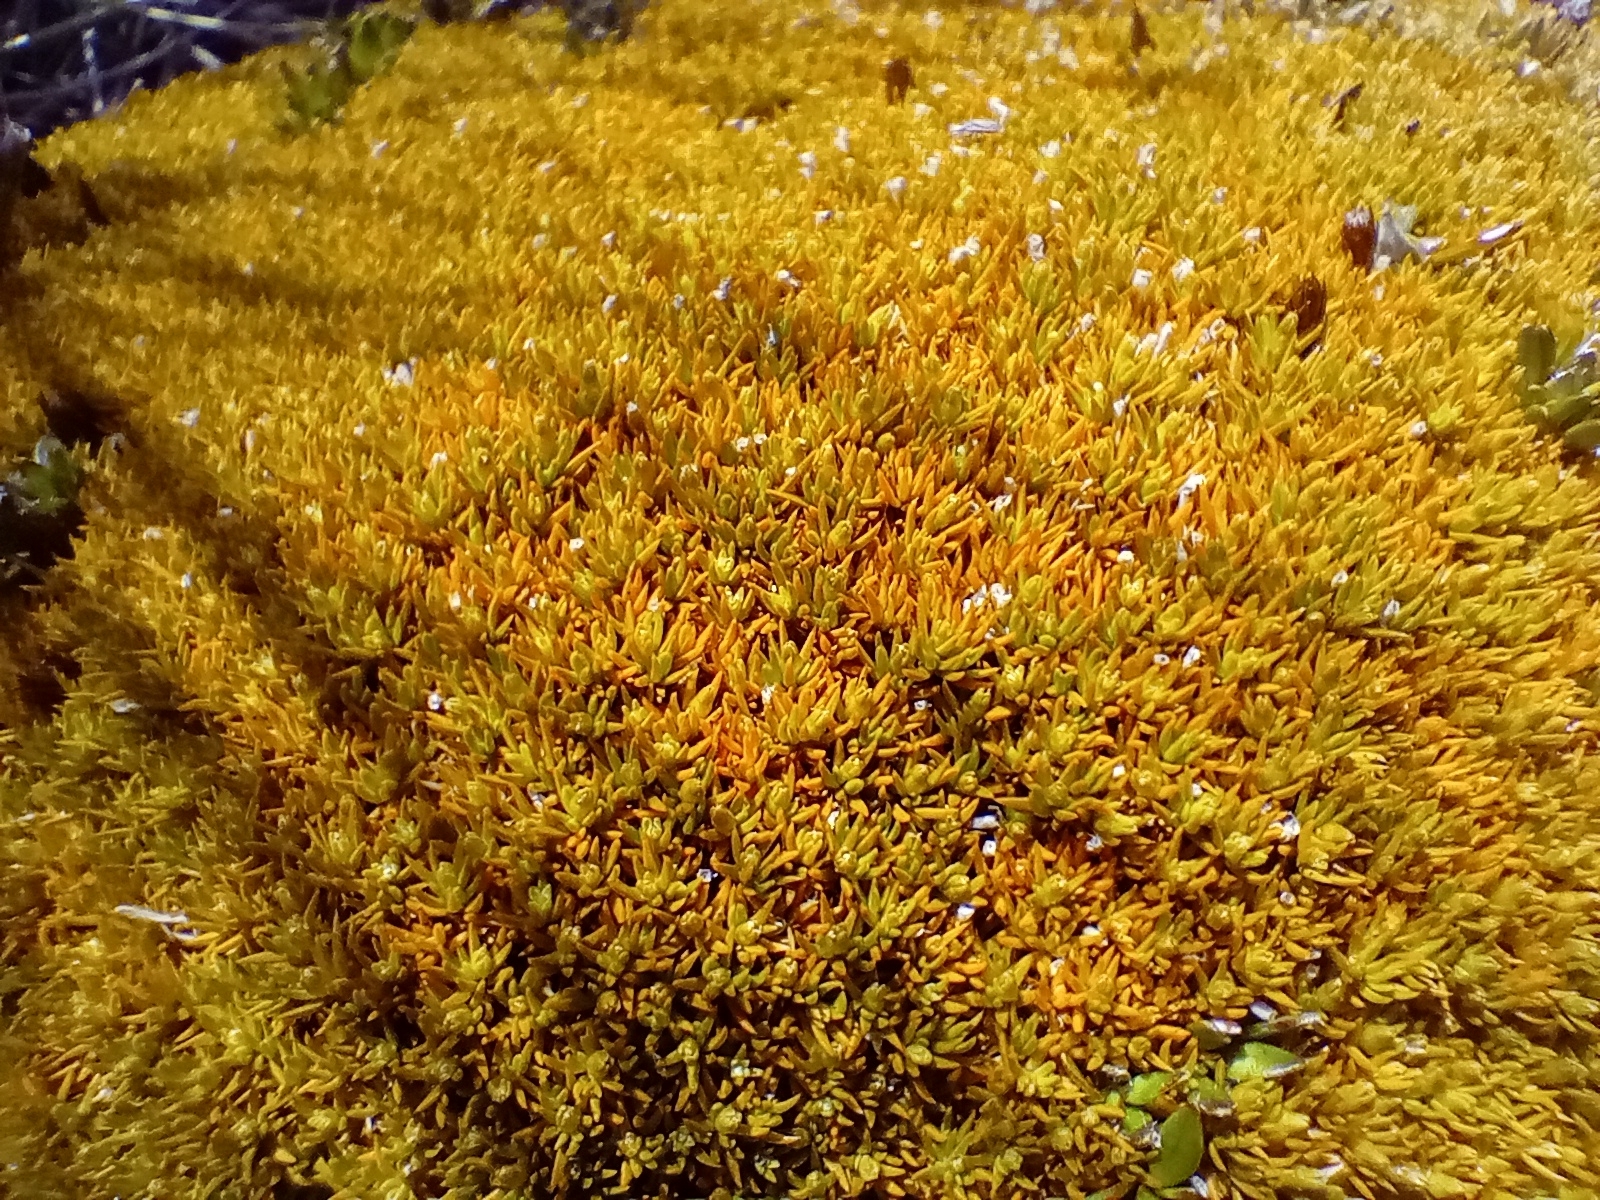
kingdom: Plantae
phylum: Tracheophyta
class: Magnoliopsida
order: Caryophyllales
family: Caryophyllaceae
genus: Scleranthus
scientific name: Scleranthus uniflorus
